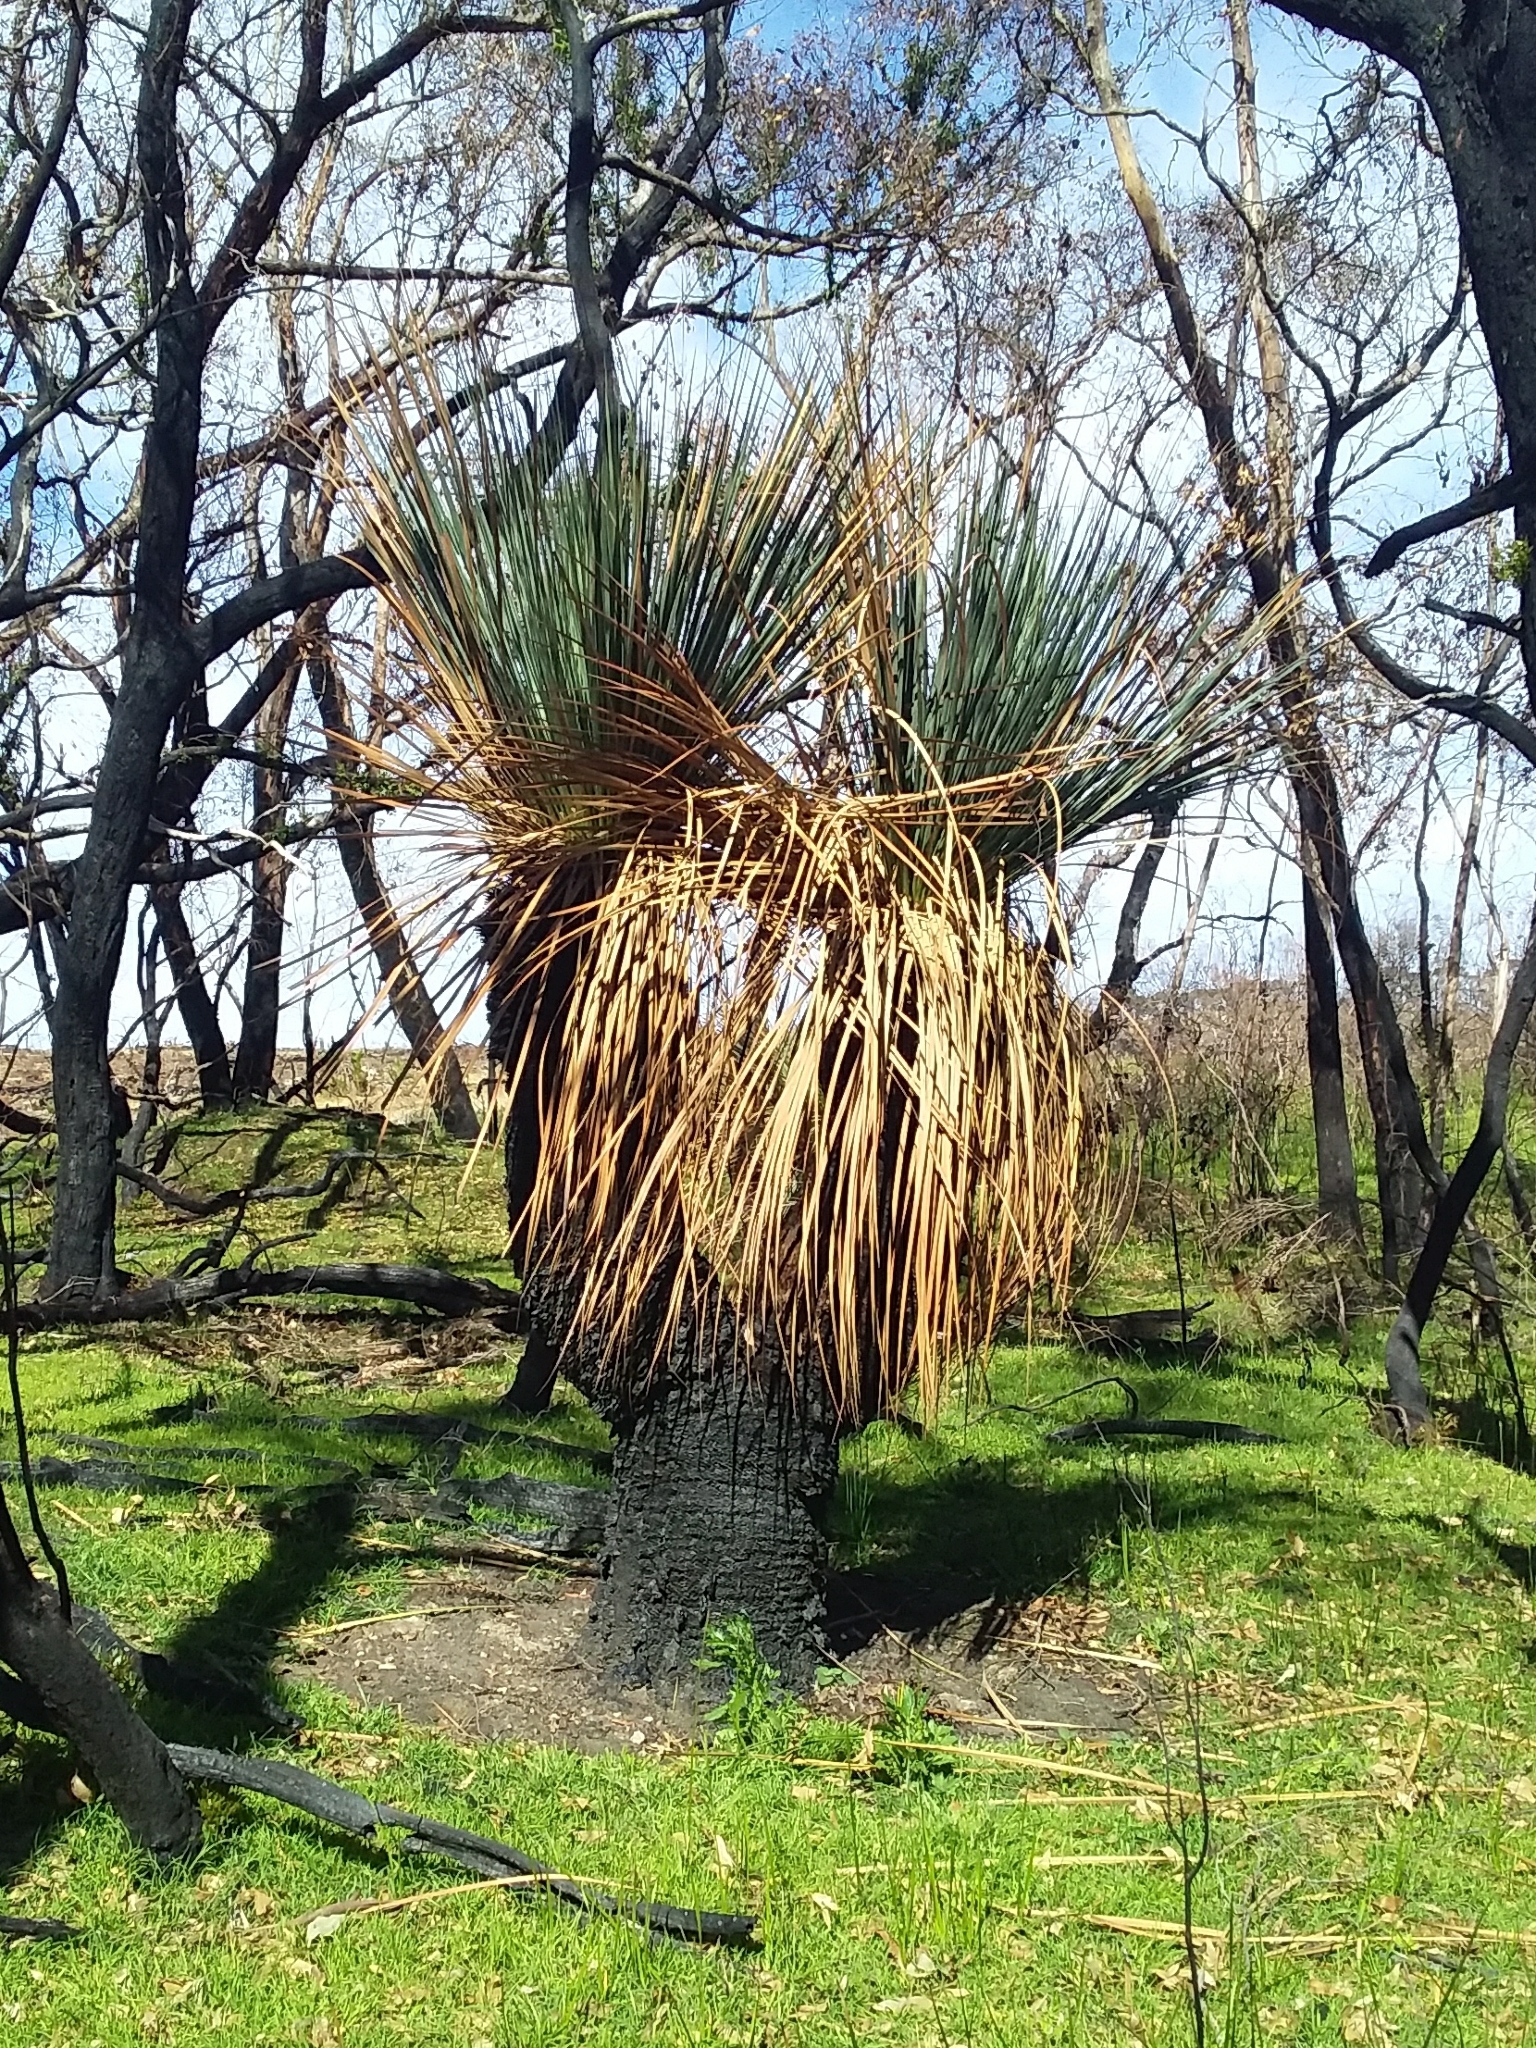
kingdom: Plantae
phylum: Tracheophyta
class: Liliopsida
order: Asparagales
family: Asphodelaceae
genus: Xanthorrhoea
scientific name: Xanthorrhoea semiplana
